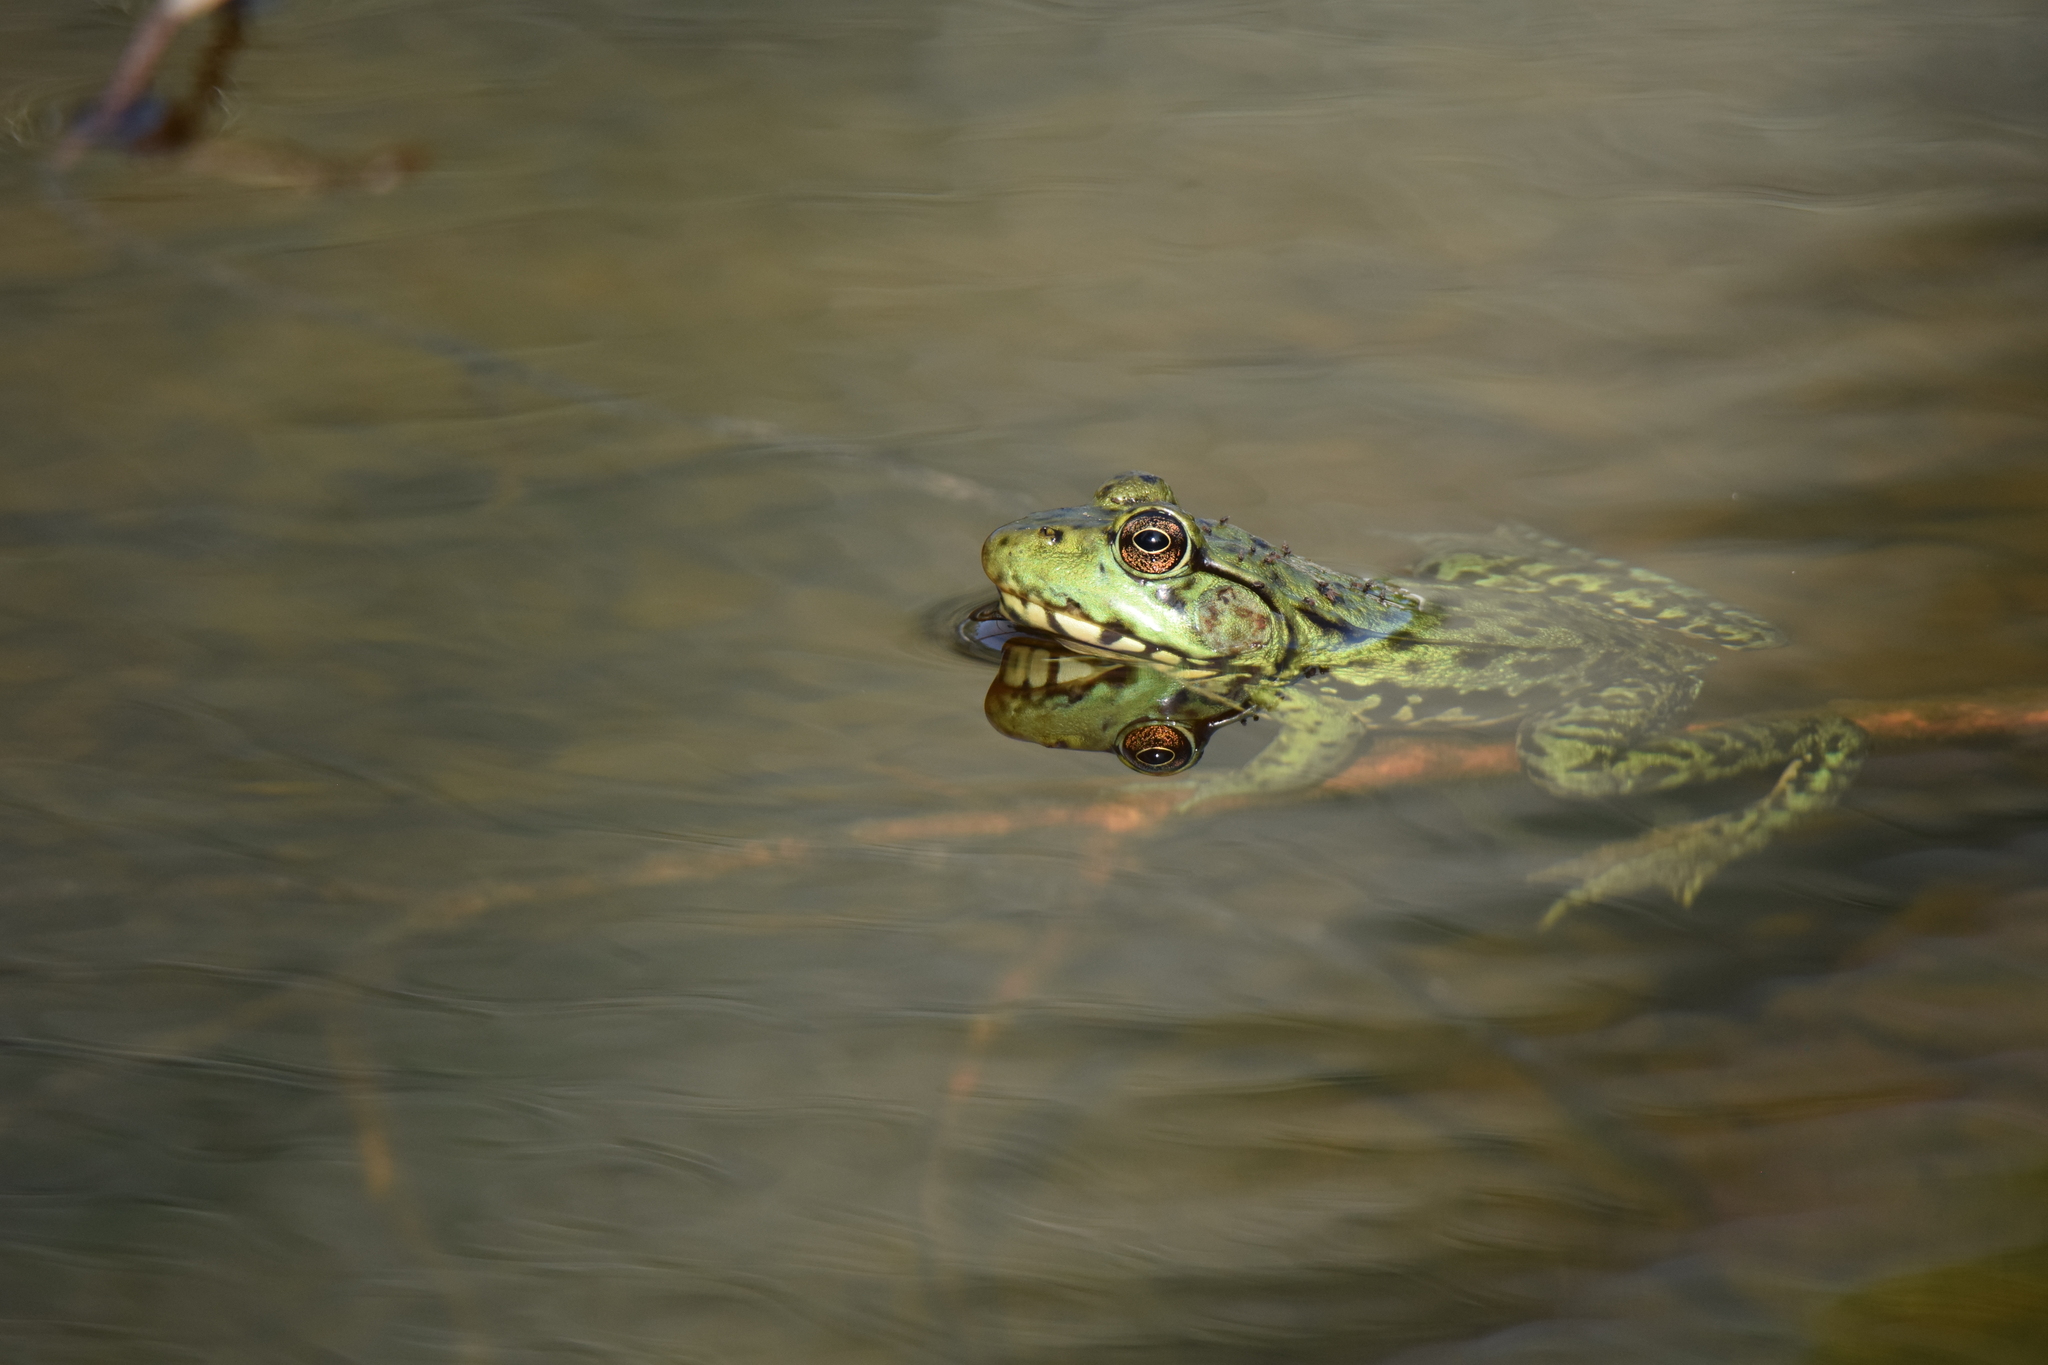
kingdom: Animalia
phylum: Chordata
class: Amphibia
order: Anura
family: Ranidae
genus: Lithobates
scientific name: Lithobates clamitans
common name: Green frog
